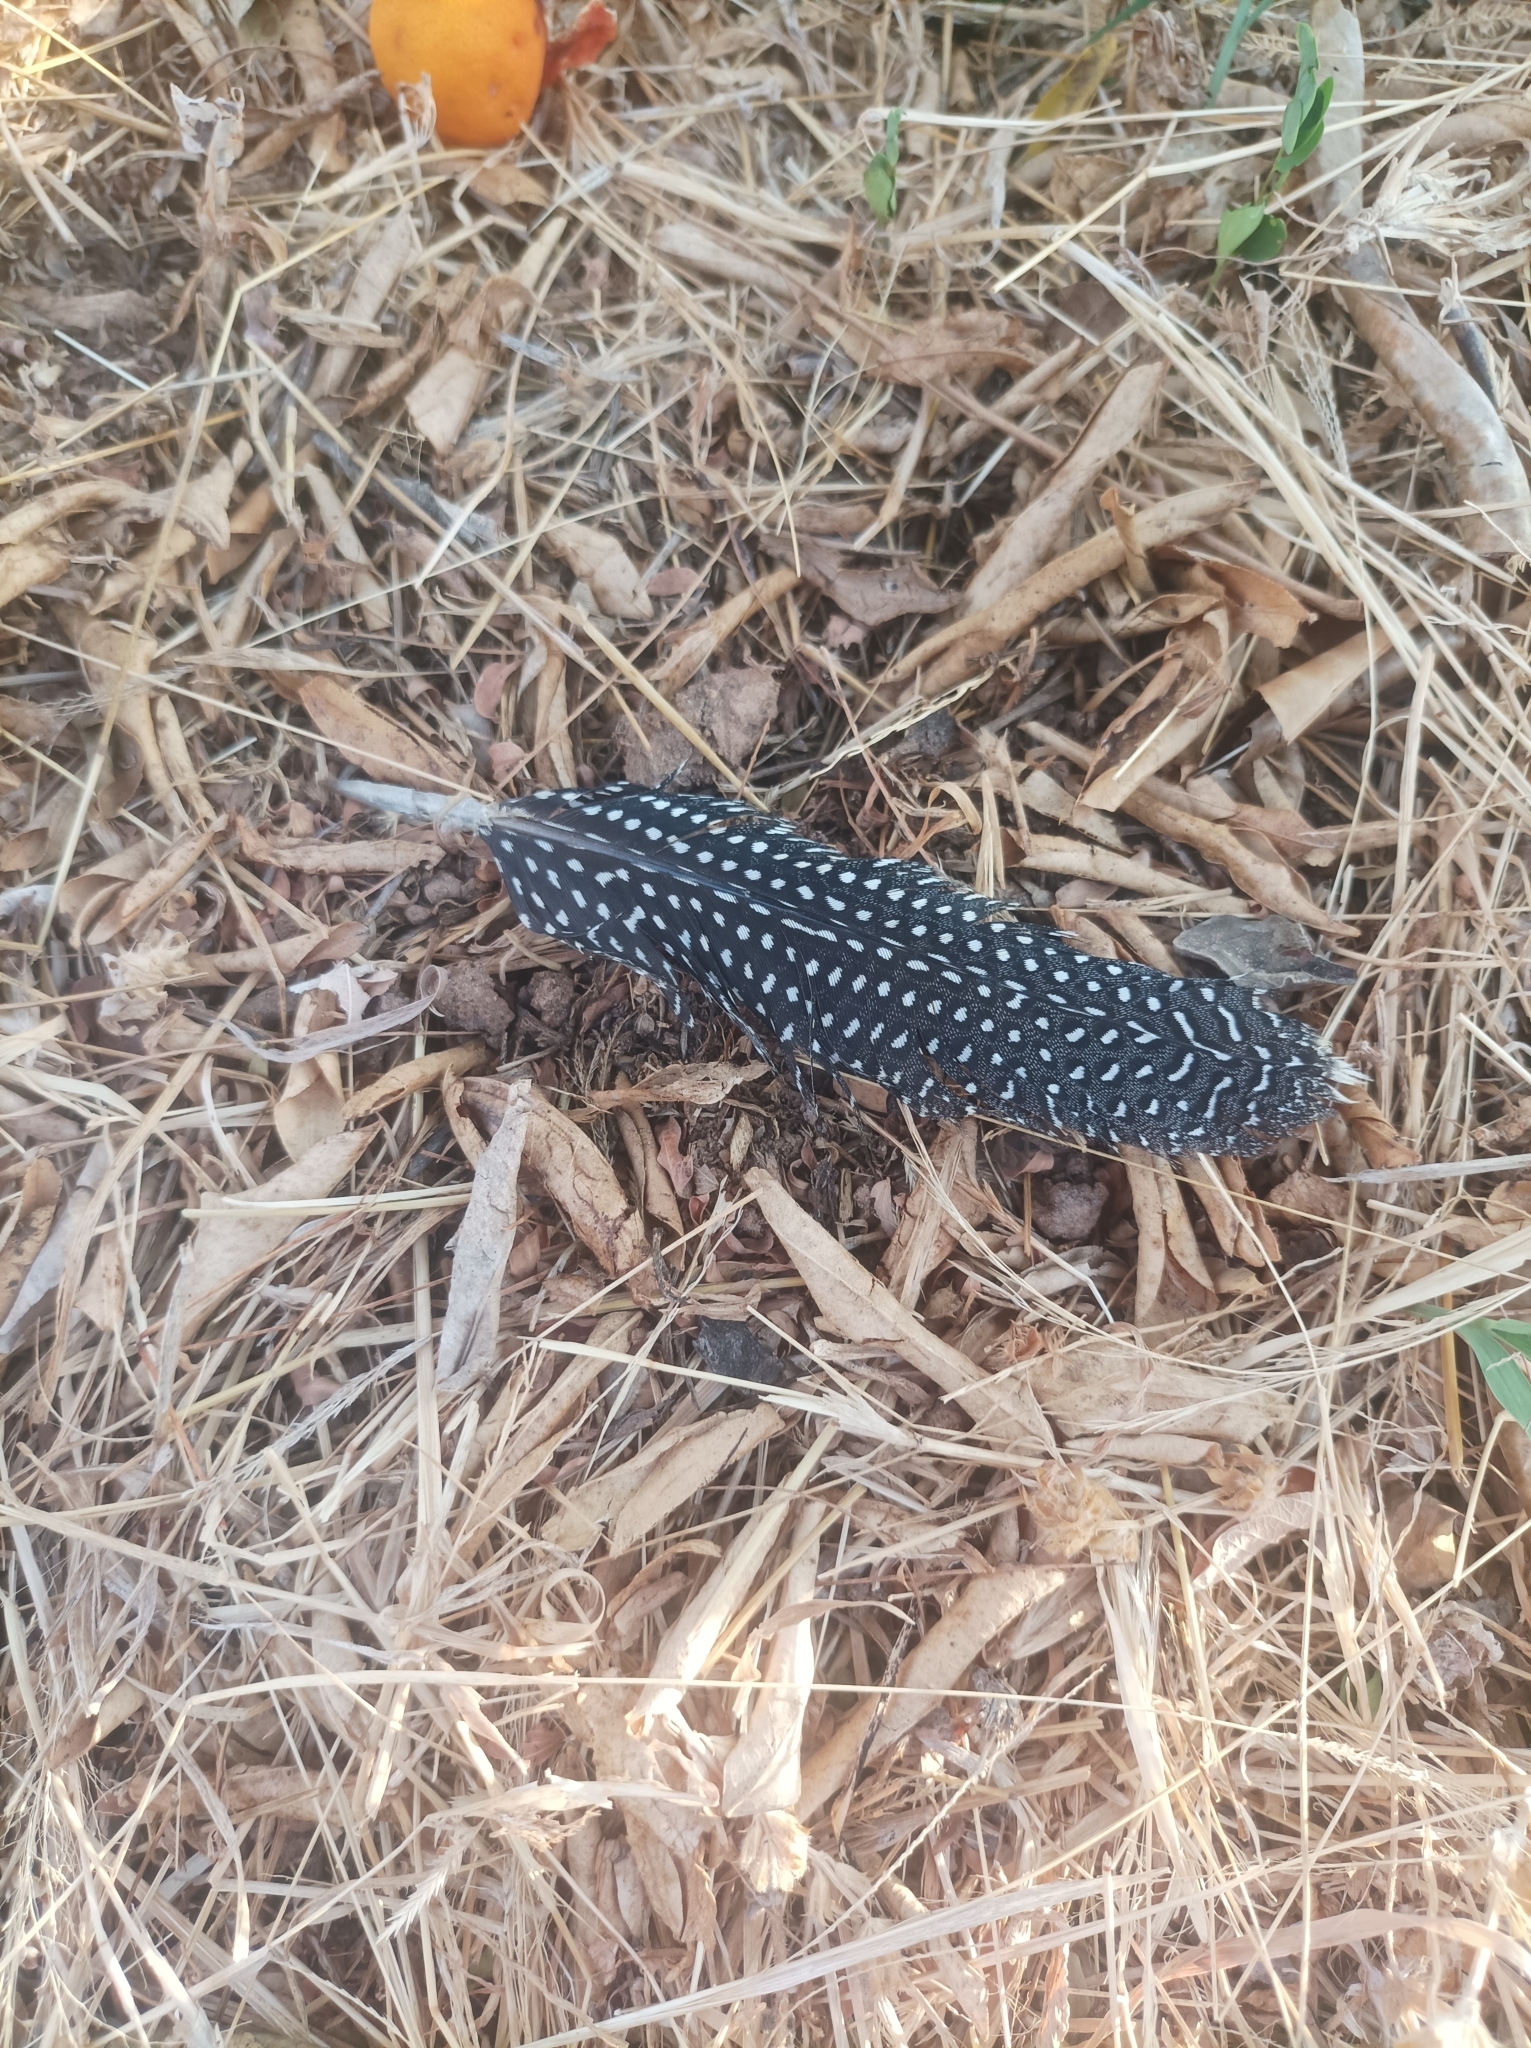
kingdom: Animalia
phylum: Chordata
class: Aves
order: Galliformes
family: Numididae
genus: Numida
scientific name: Numida meleagris
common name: Helmeted guineafowl
